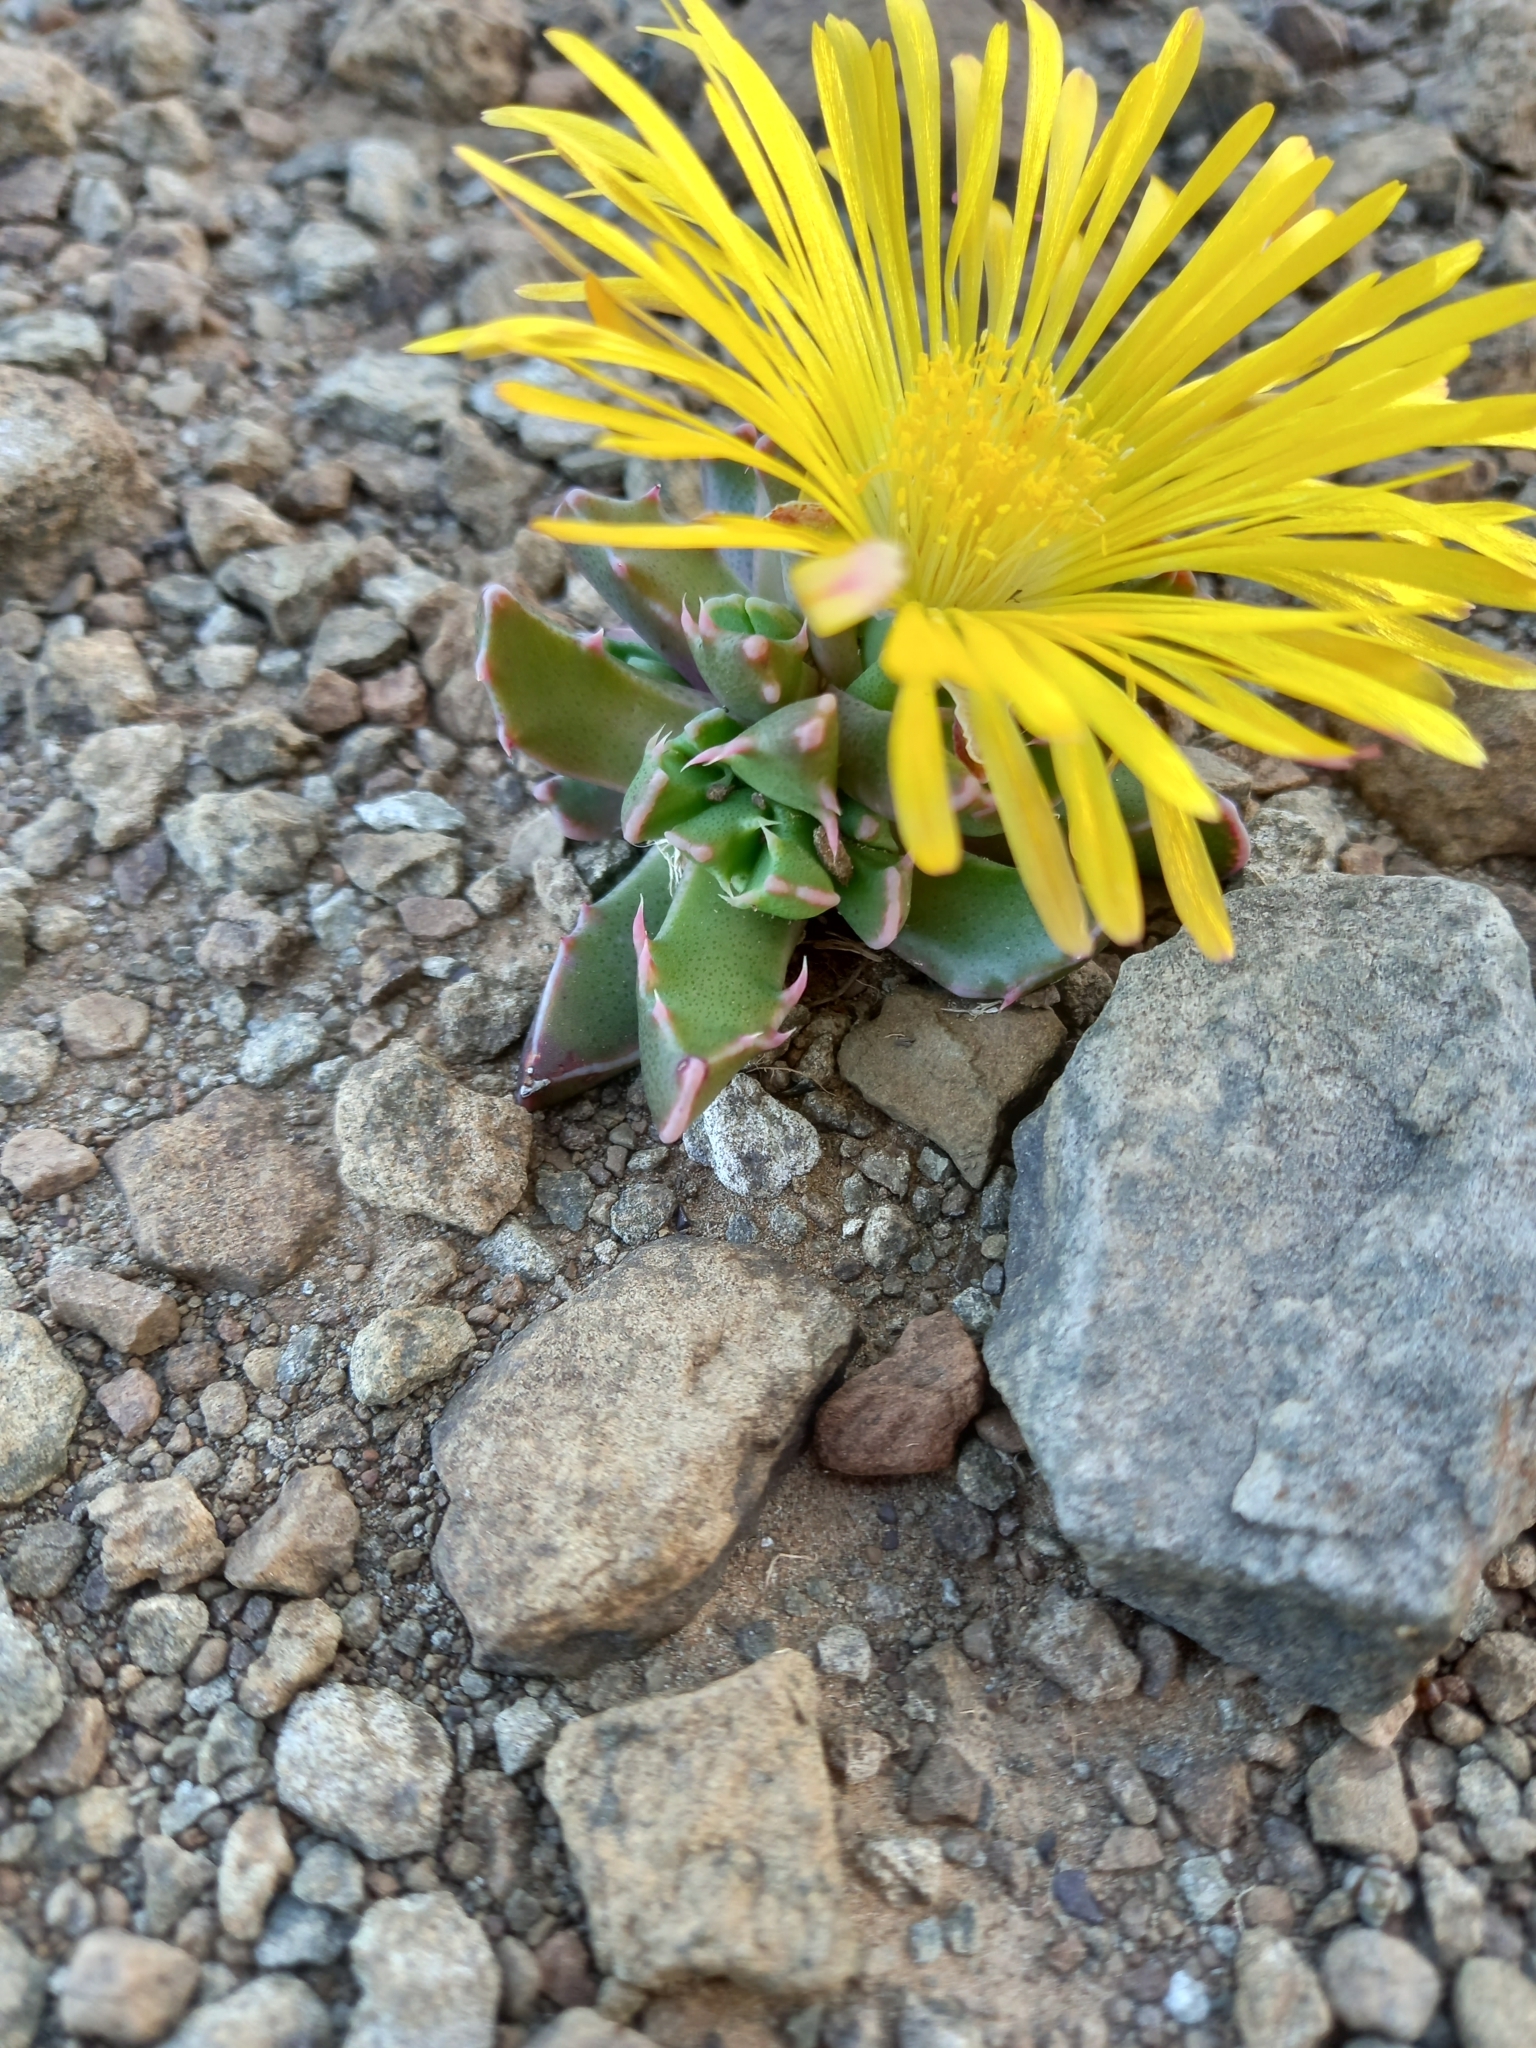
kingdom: Plantae
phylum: Tracheophyta
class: Magnoliopsida
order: Caryophyllales
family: Aizoaceae
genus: Faucaria
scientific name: Faucaria bosscheana
